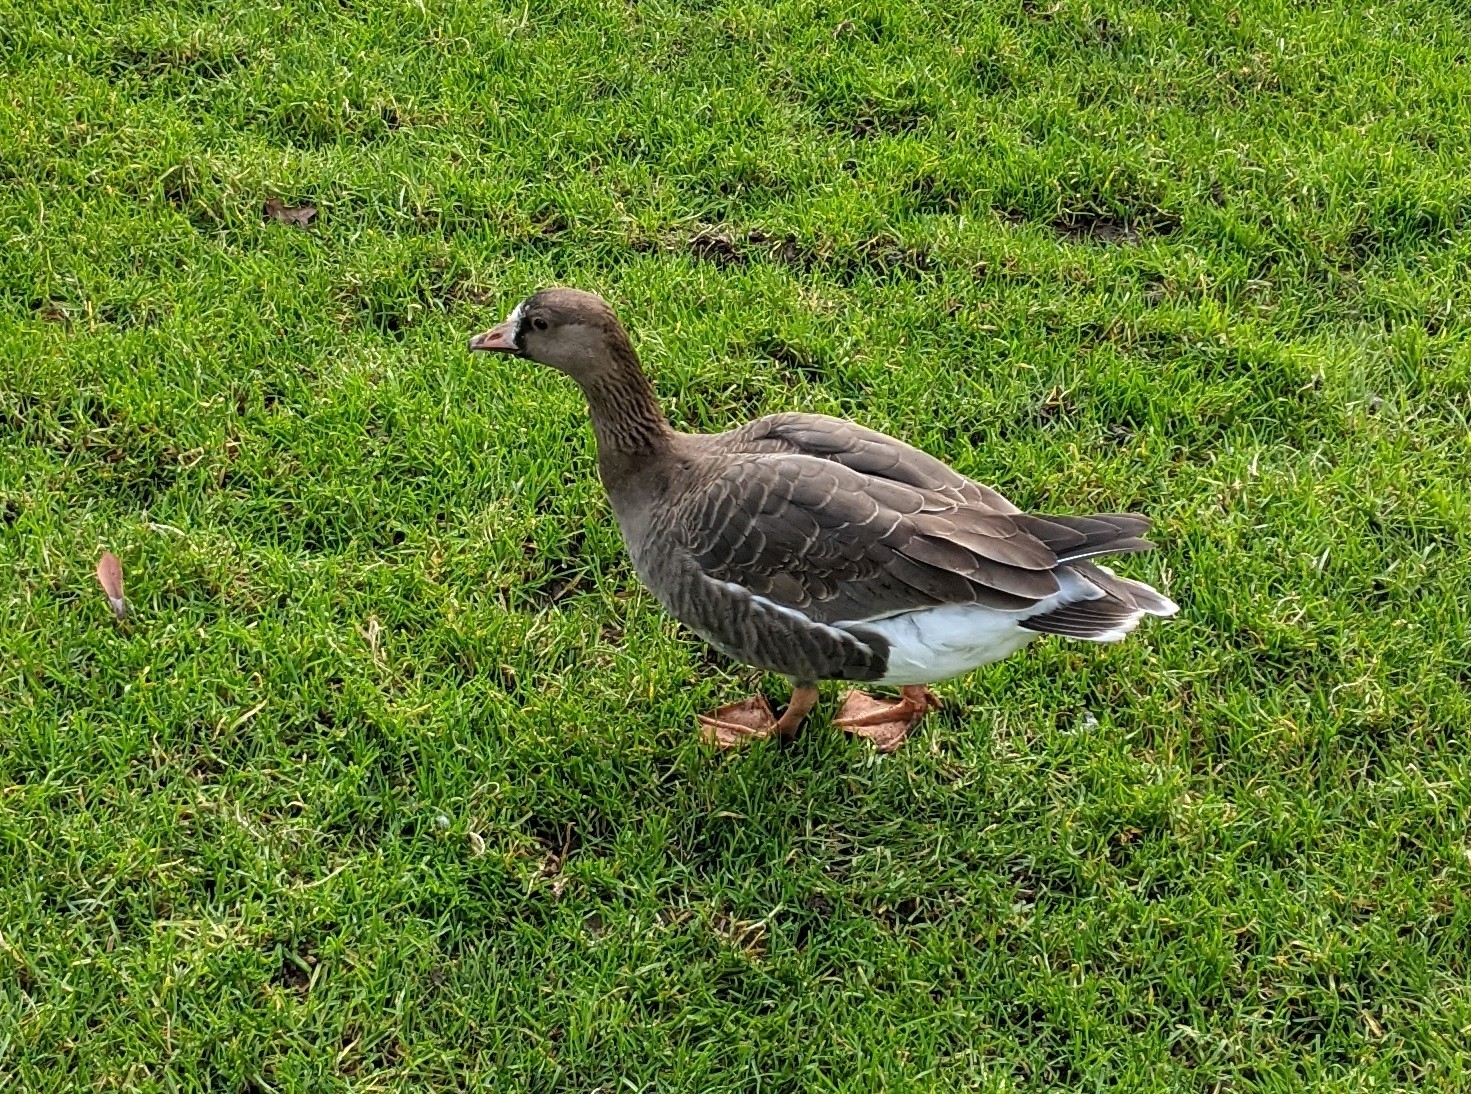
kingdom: Animalia
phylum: Chordata
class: Aves
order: Anseriformes
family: Anatidae
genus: Anser
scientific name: Anser albifrons
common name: Greater white-fronted goose
